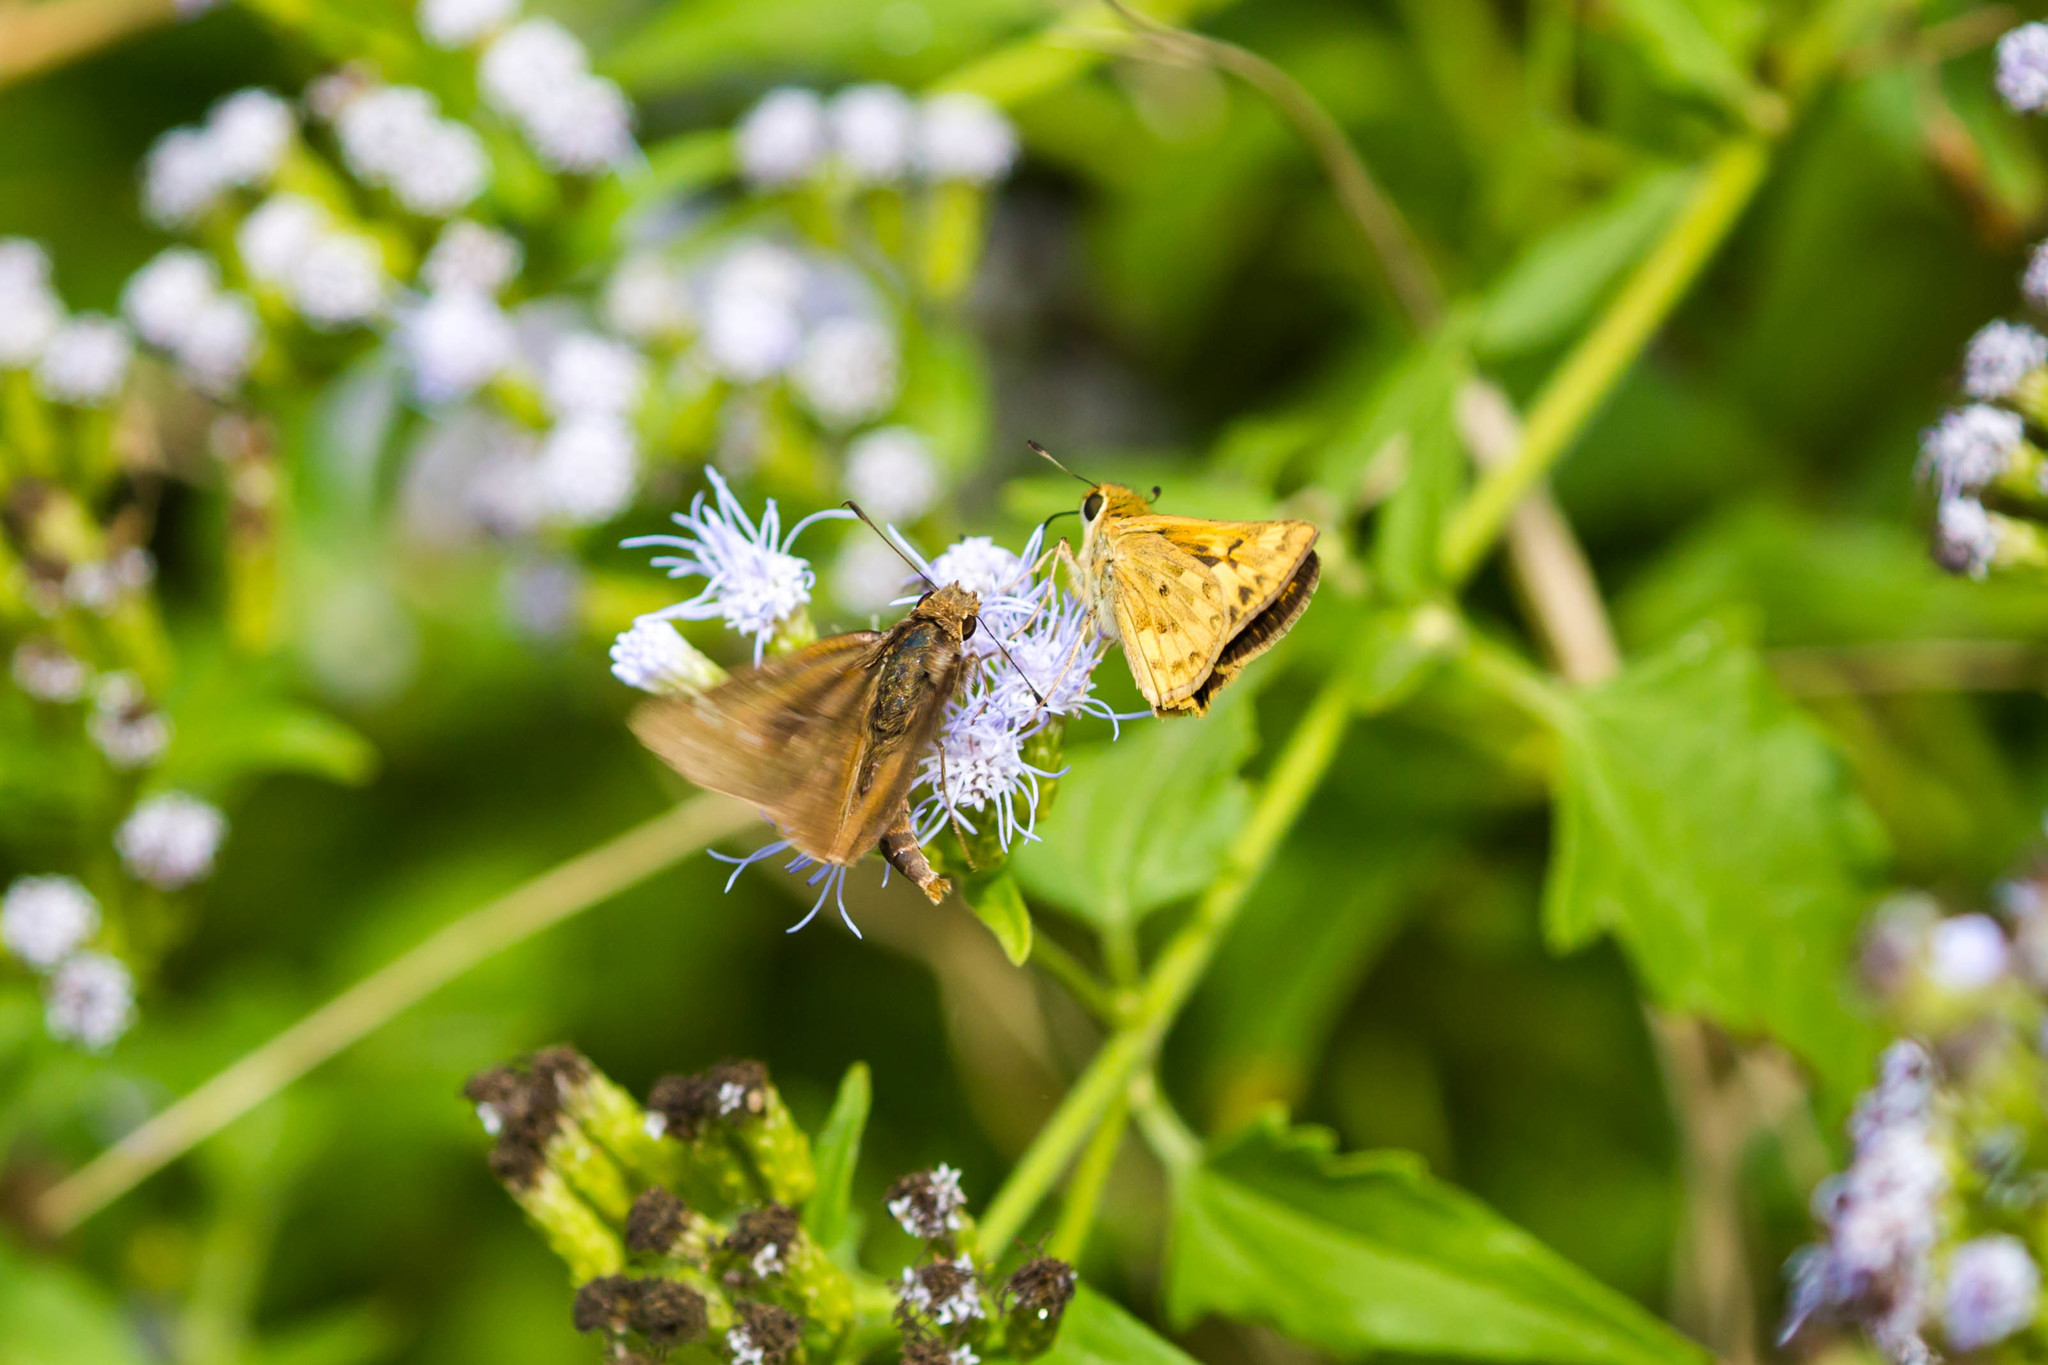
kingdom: Animalia
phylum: Arthropoda
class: Insecta
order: Lepidoptera
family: Hesperiidae
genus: Hylephila
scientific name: Hylephila phyleus
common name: Fiery skipper
